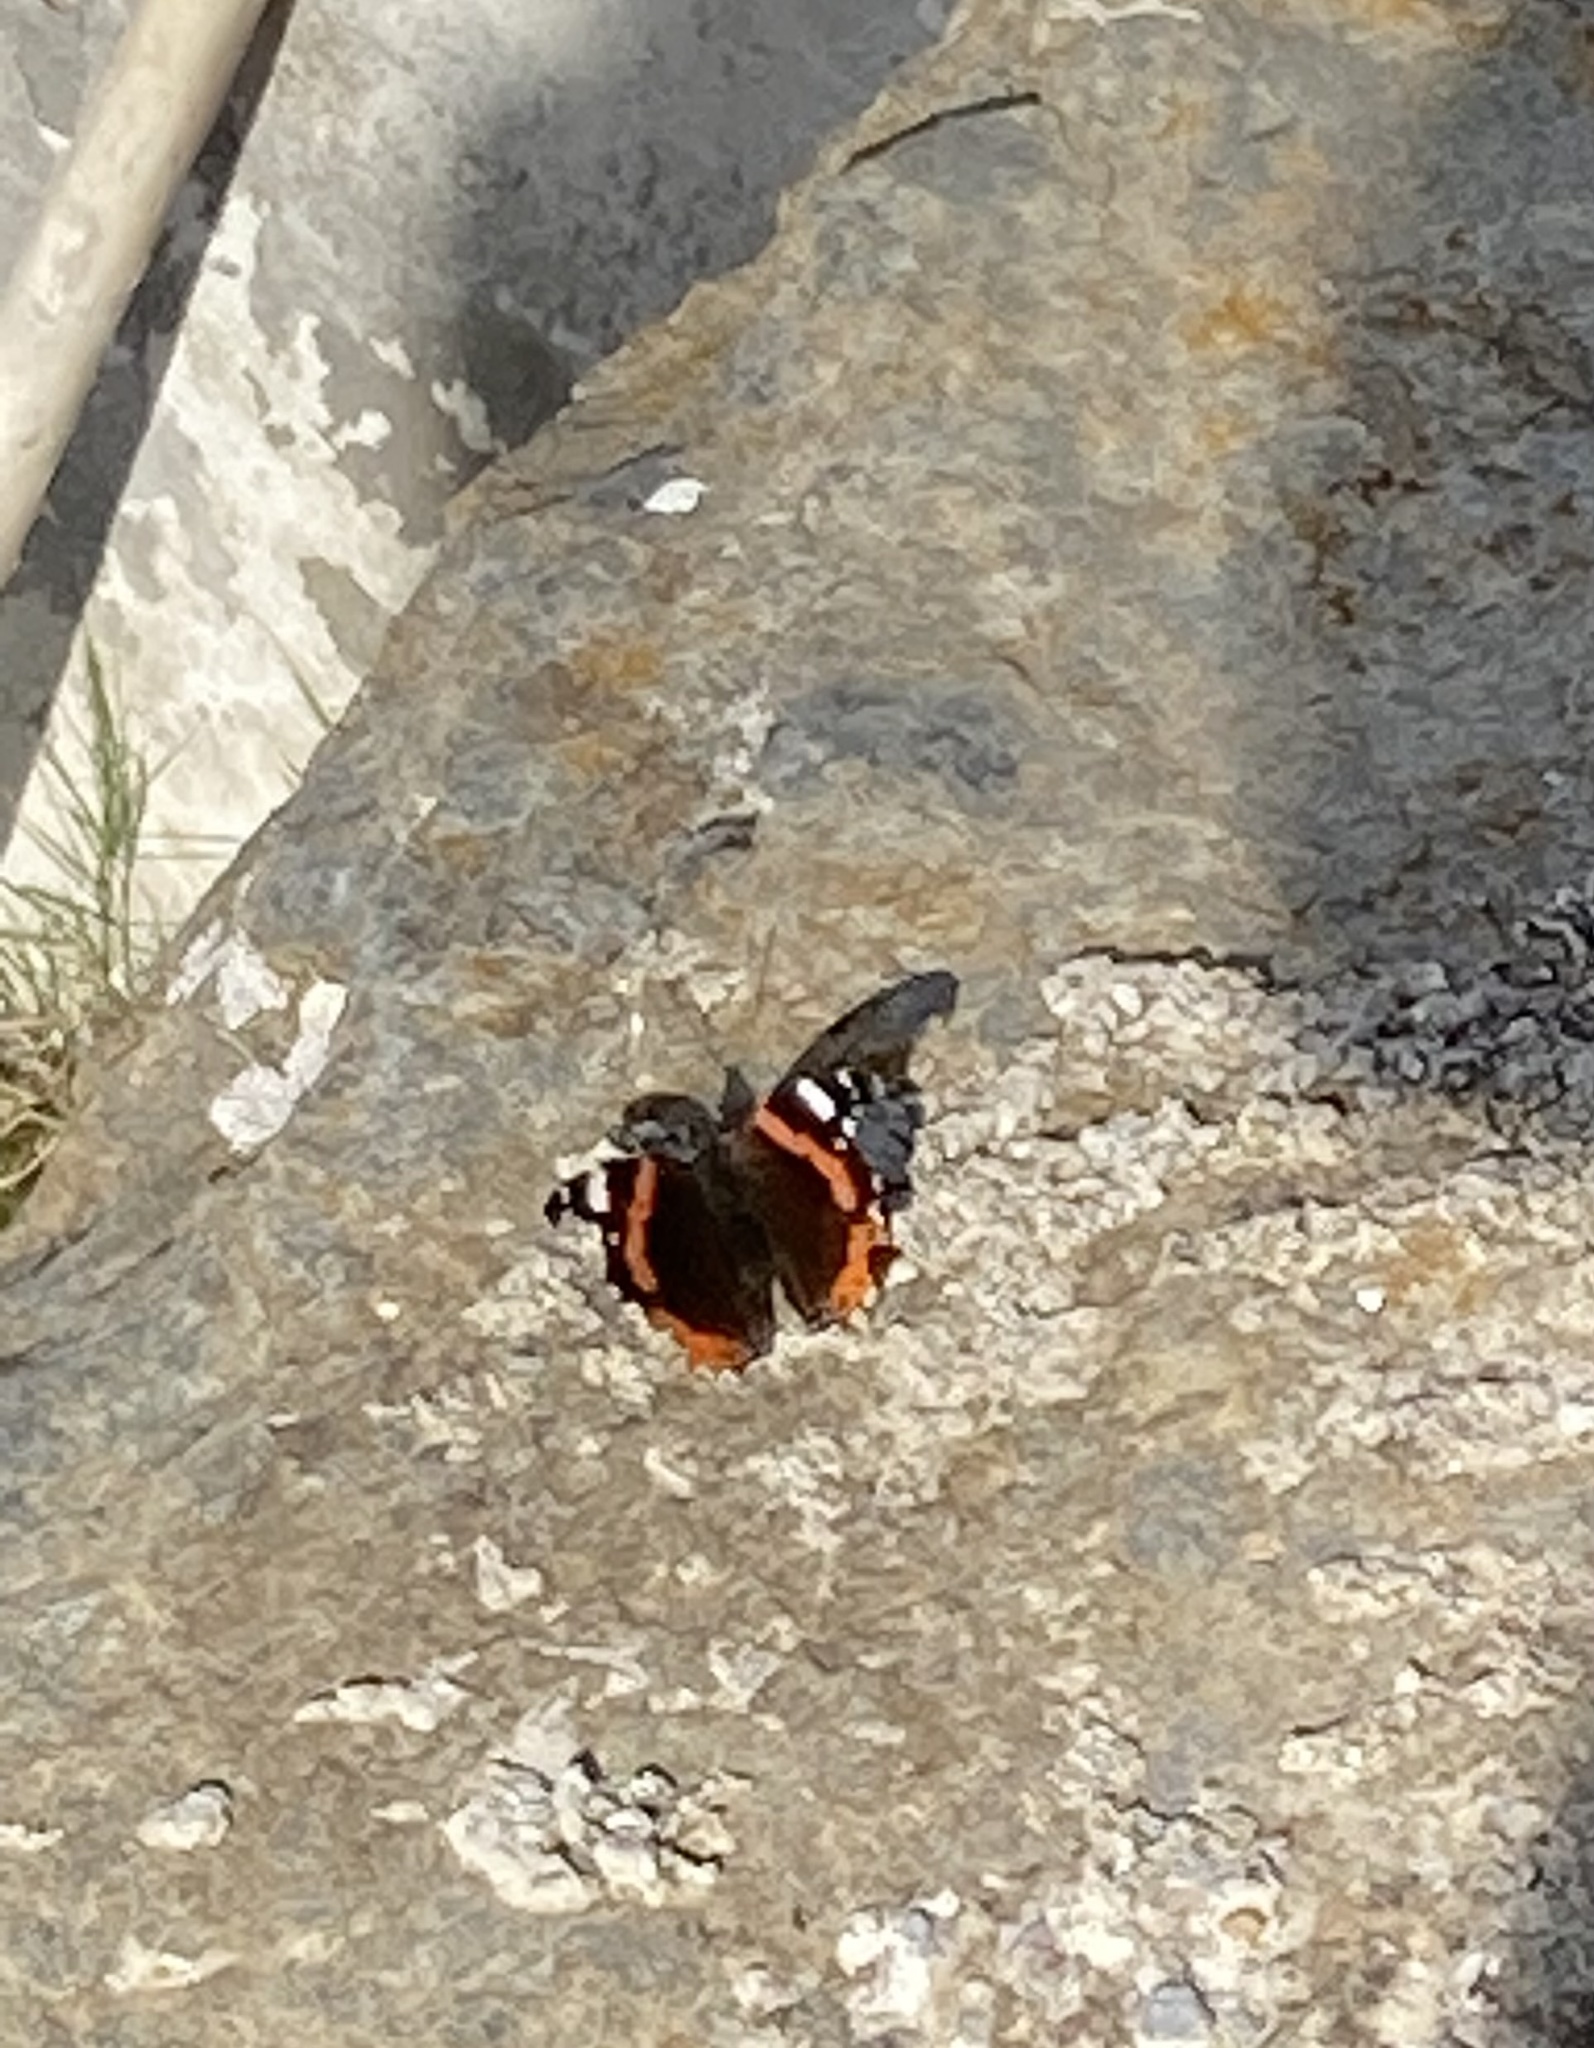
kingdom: Animalia
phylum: Arthropoda
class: Insecta
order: Lepidoptera
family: Nymphalidae
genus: Vanessa
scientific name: Vanessa atalanta
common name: Red admiral
